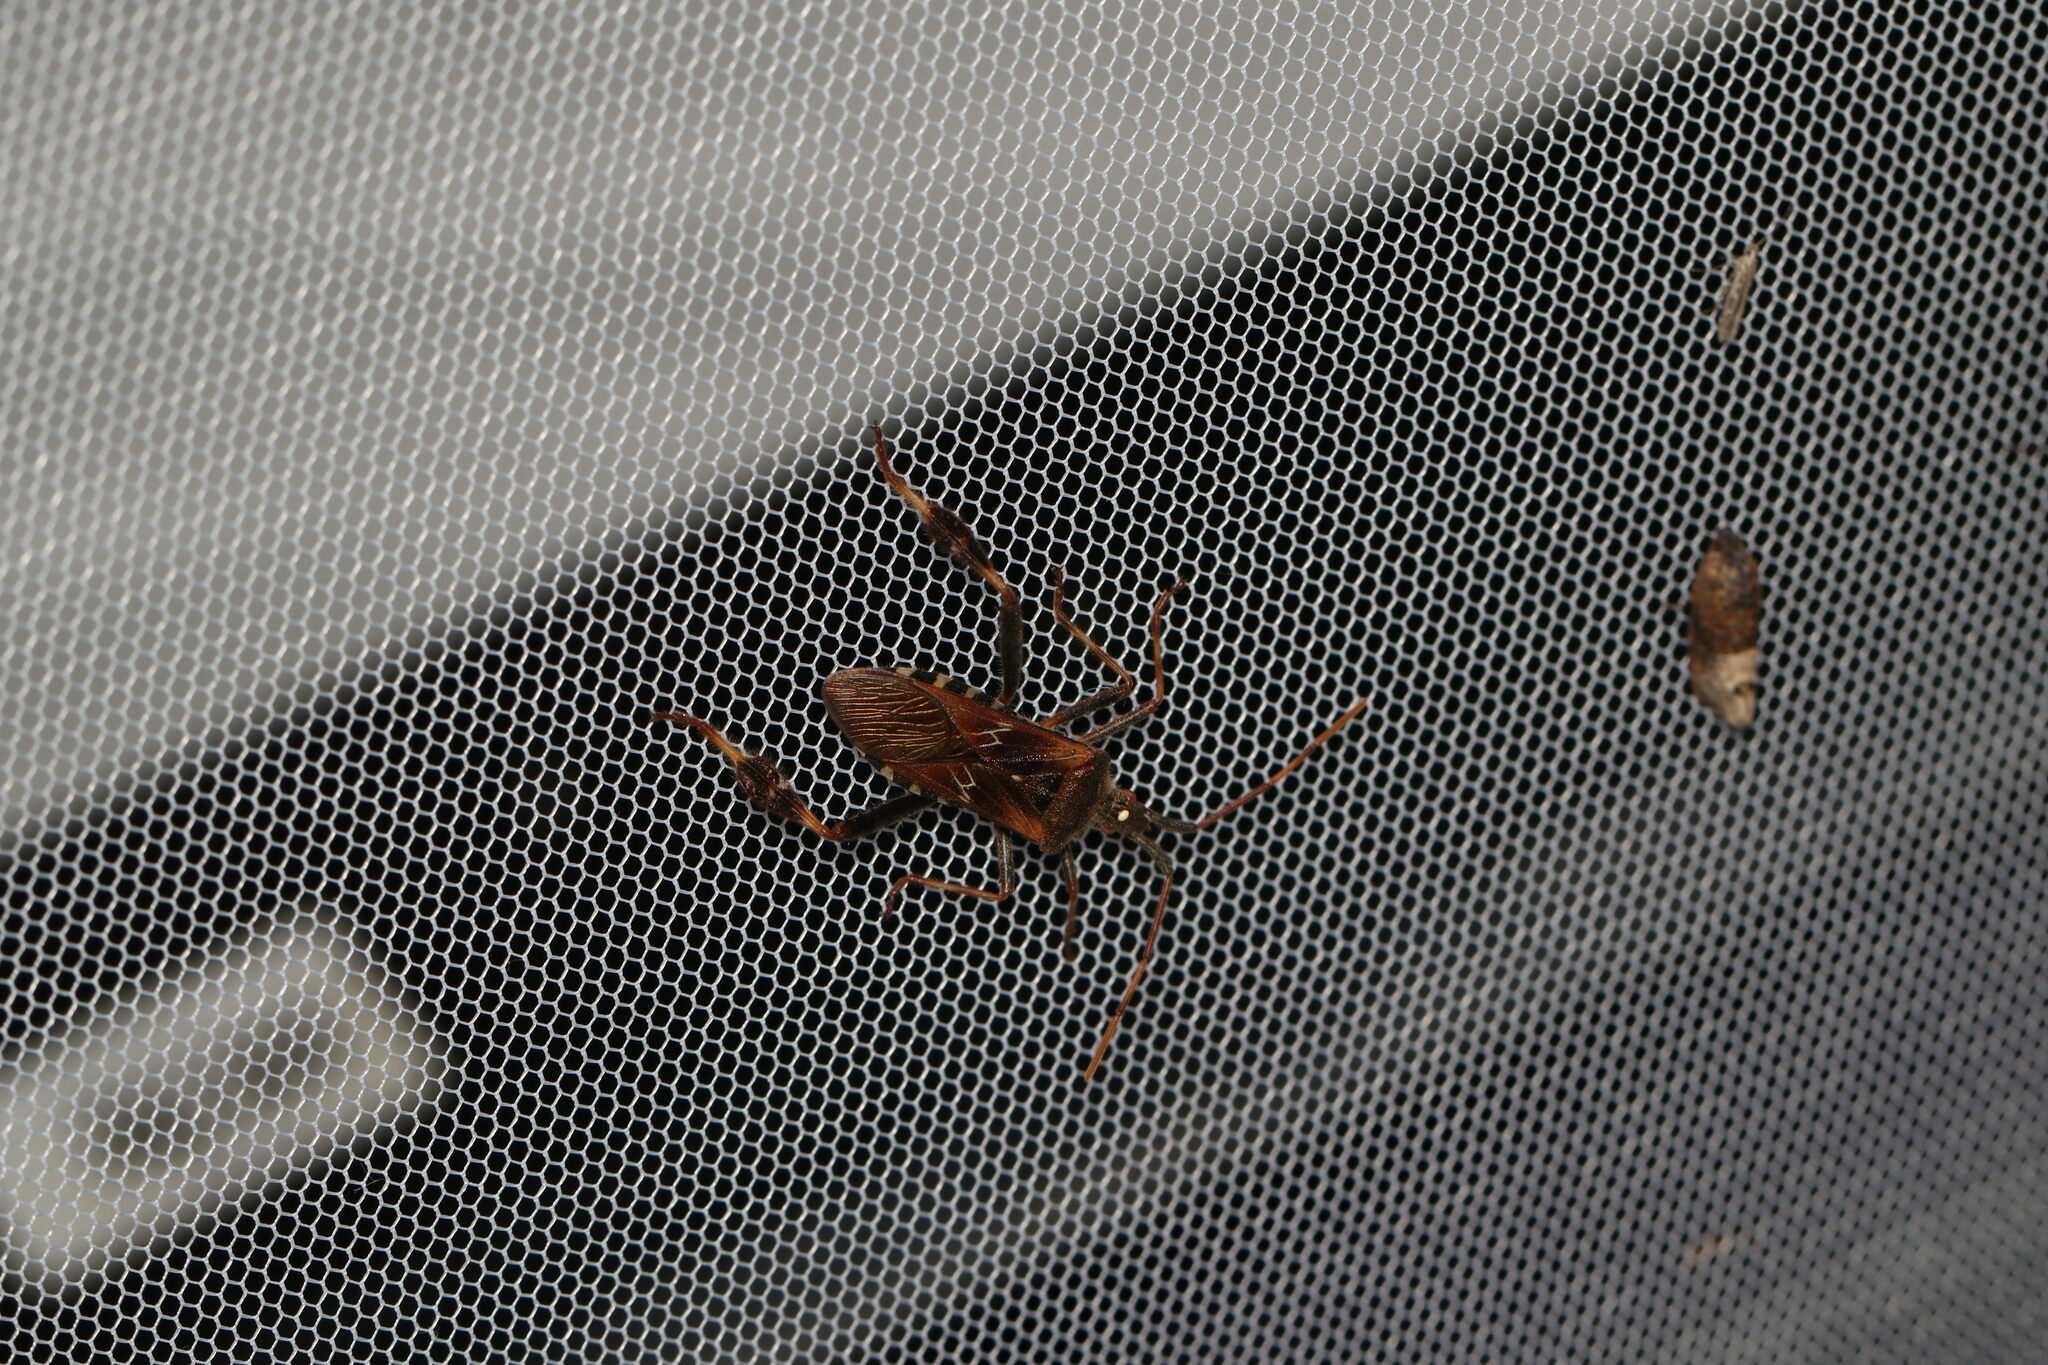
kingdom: Animalia
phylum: Arthropoda
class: Insecta
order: Hemiptera
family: Coreidae
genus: Leptoglossus
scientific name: Leptoglossus occidentalis
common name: Western conifer-seed bug
